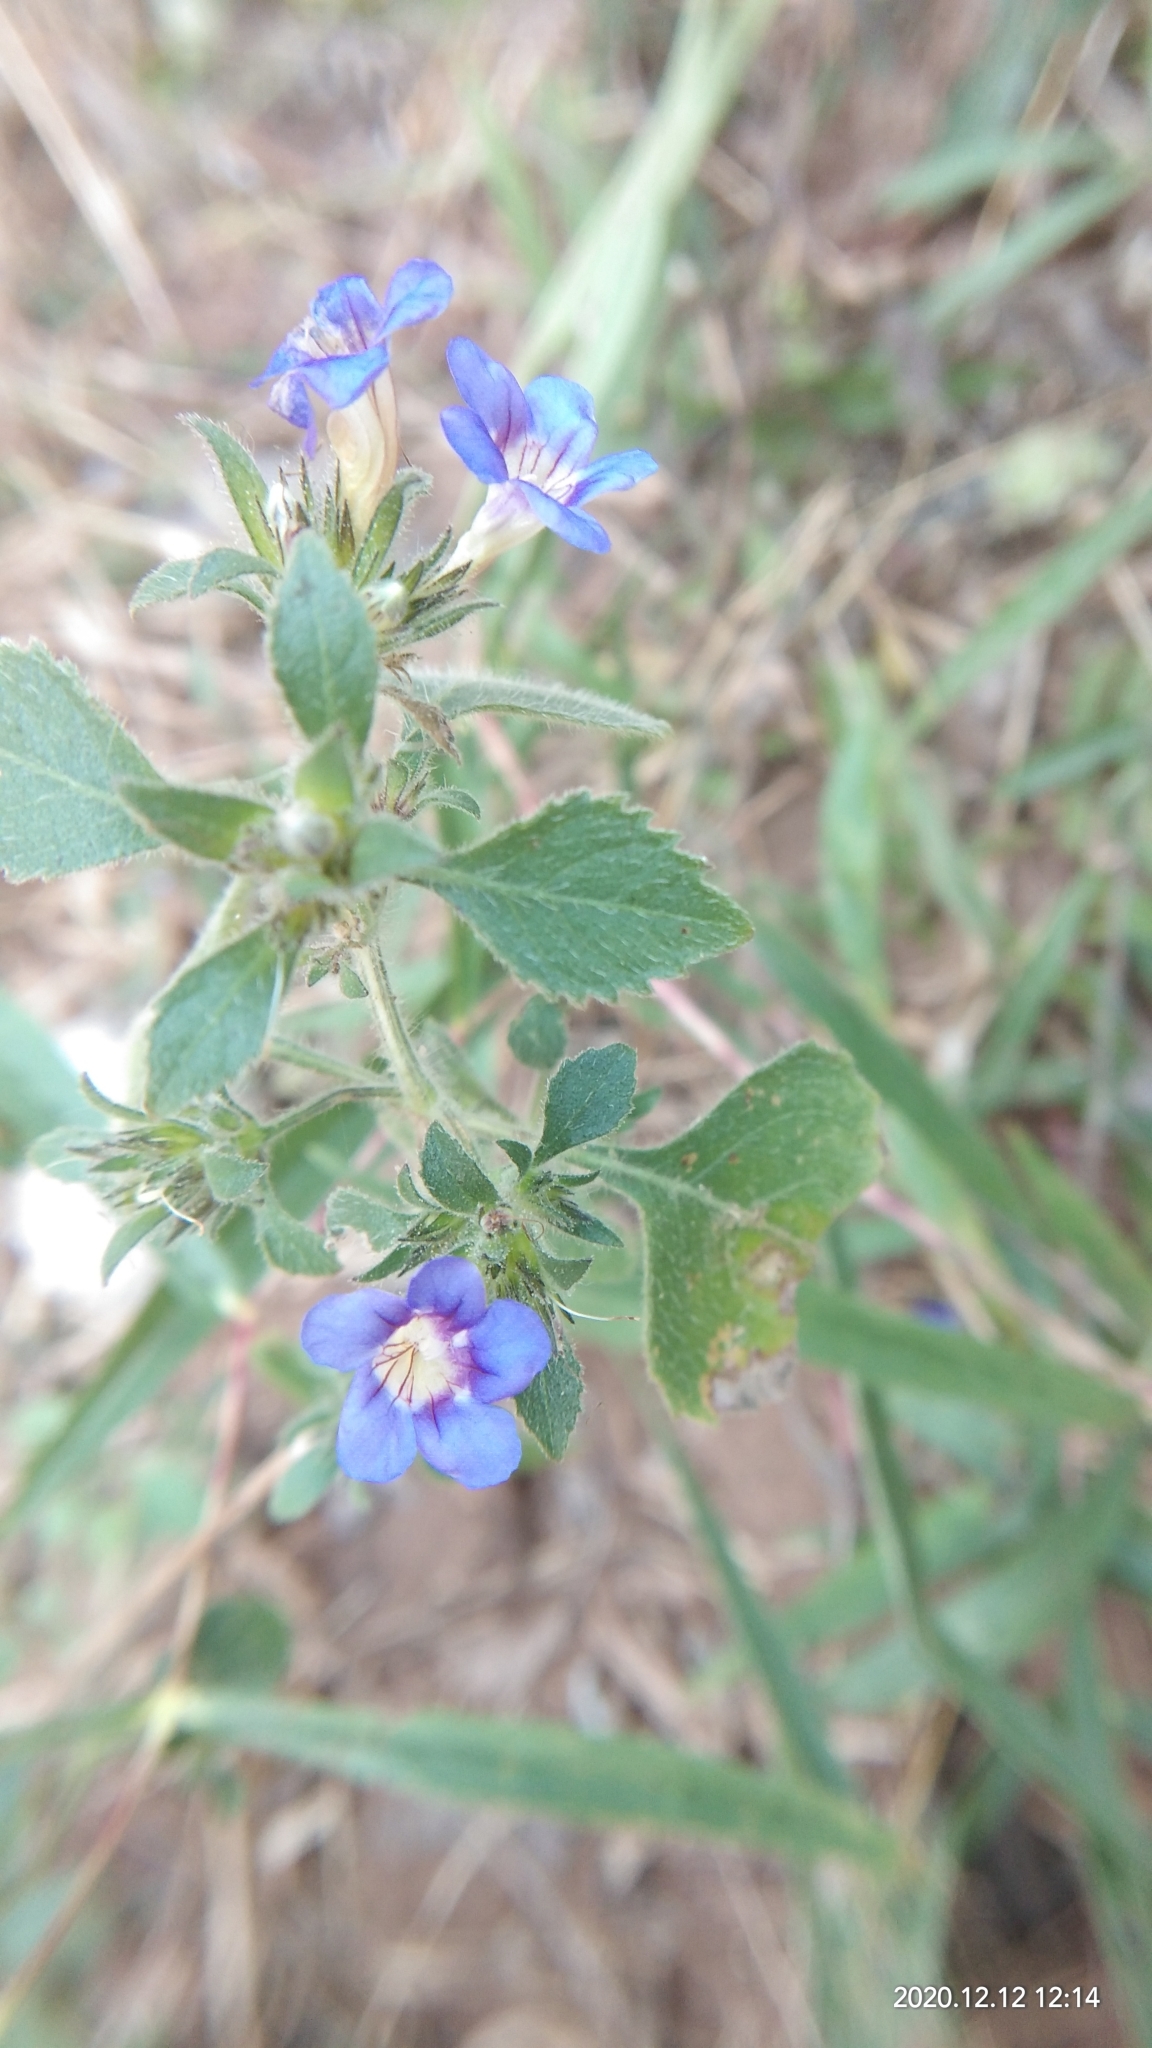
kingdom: Plantae
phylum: Tracheophyta
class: Magnoliopsida
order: Lamiales
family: Acanthaceae
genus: Strobilanthes
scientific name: Strobilanthes pavala
